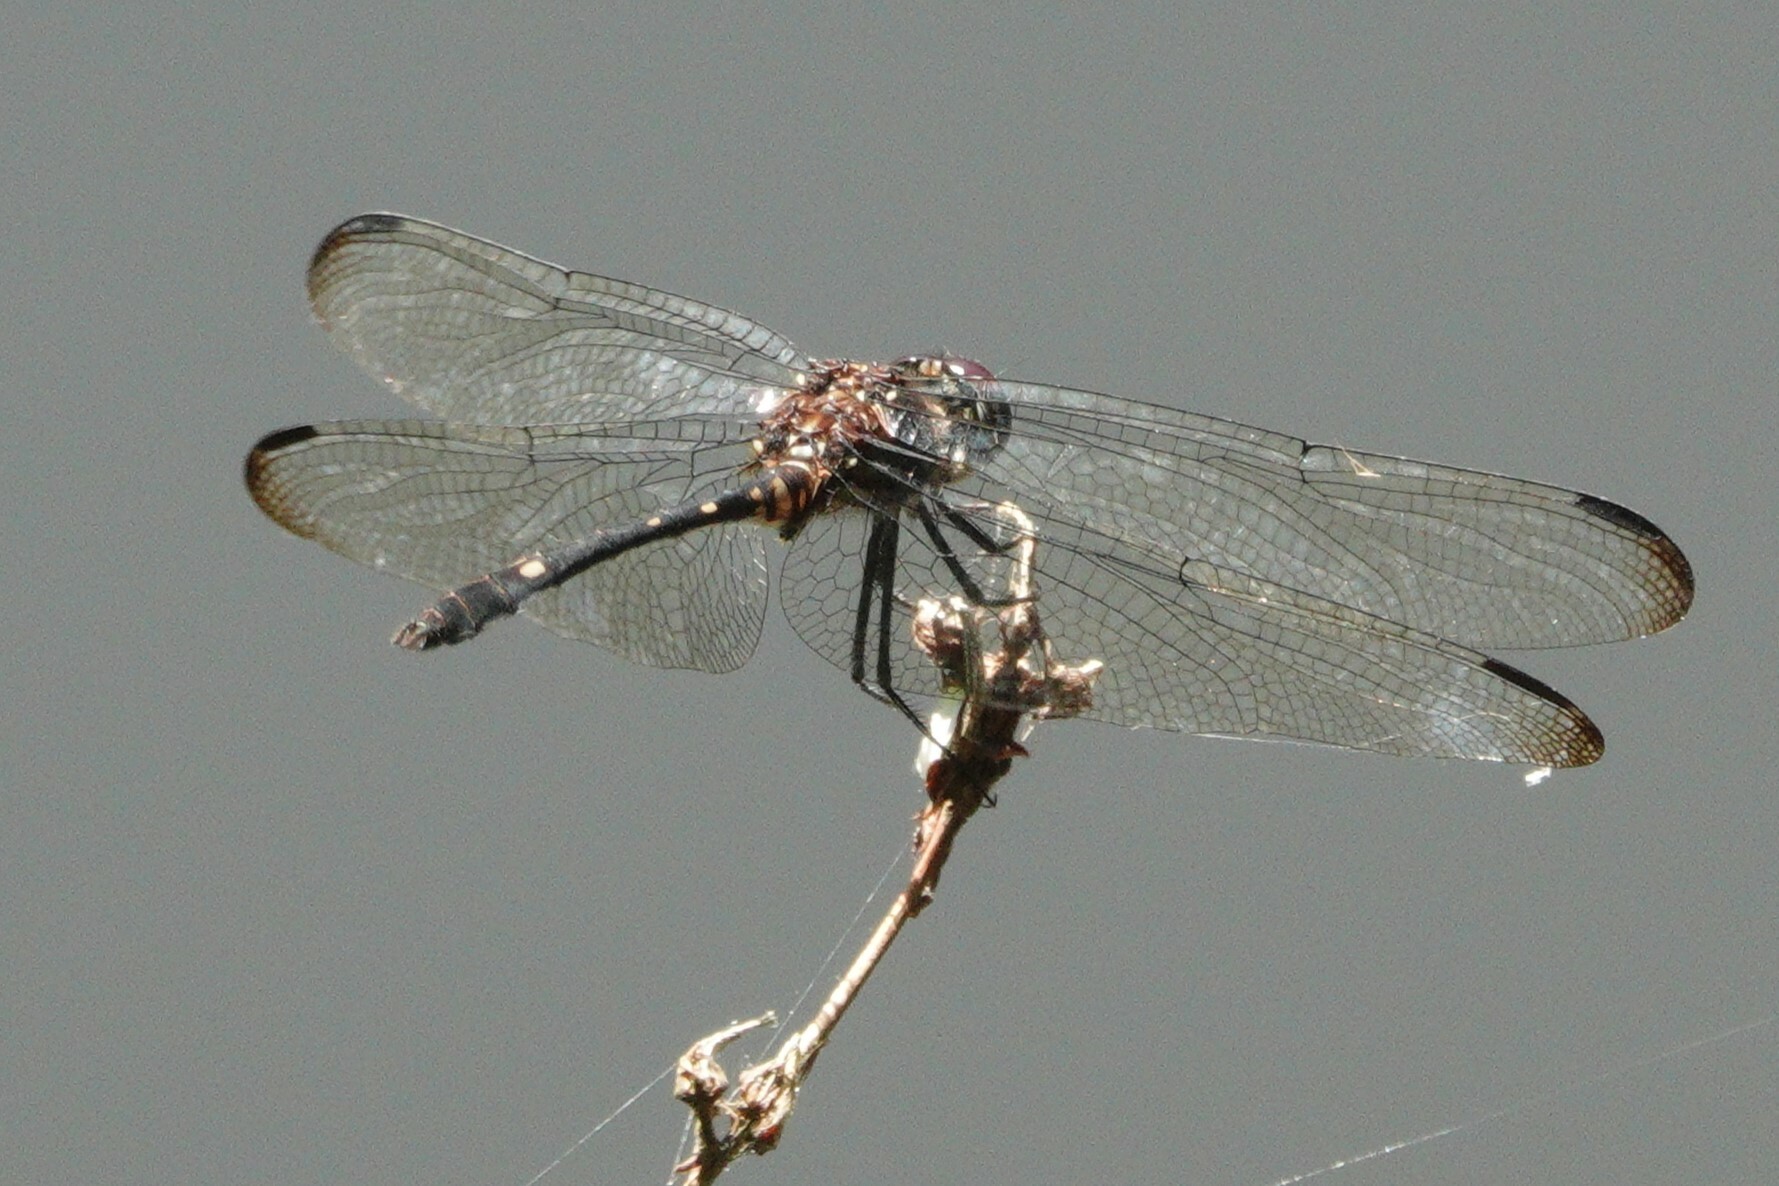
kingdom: Animalia
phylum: Arthropoda
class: Insecta
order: Odonata
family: Libellulidae
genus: Dythemis
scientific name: Dythemis velox
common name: Swift setwing
